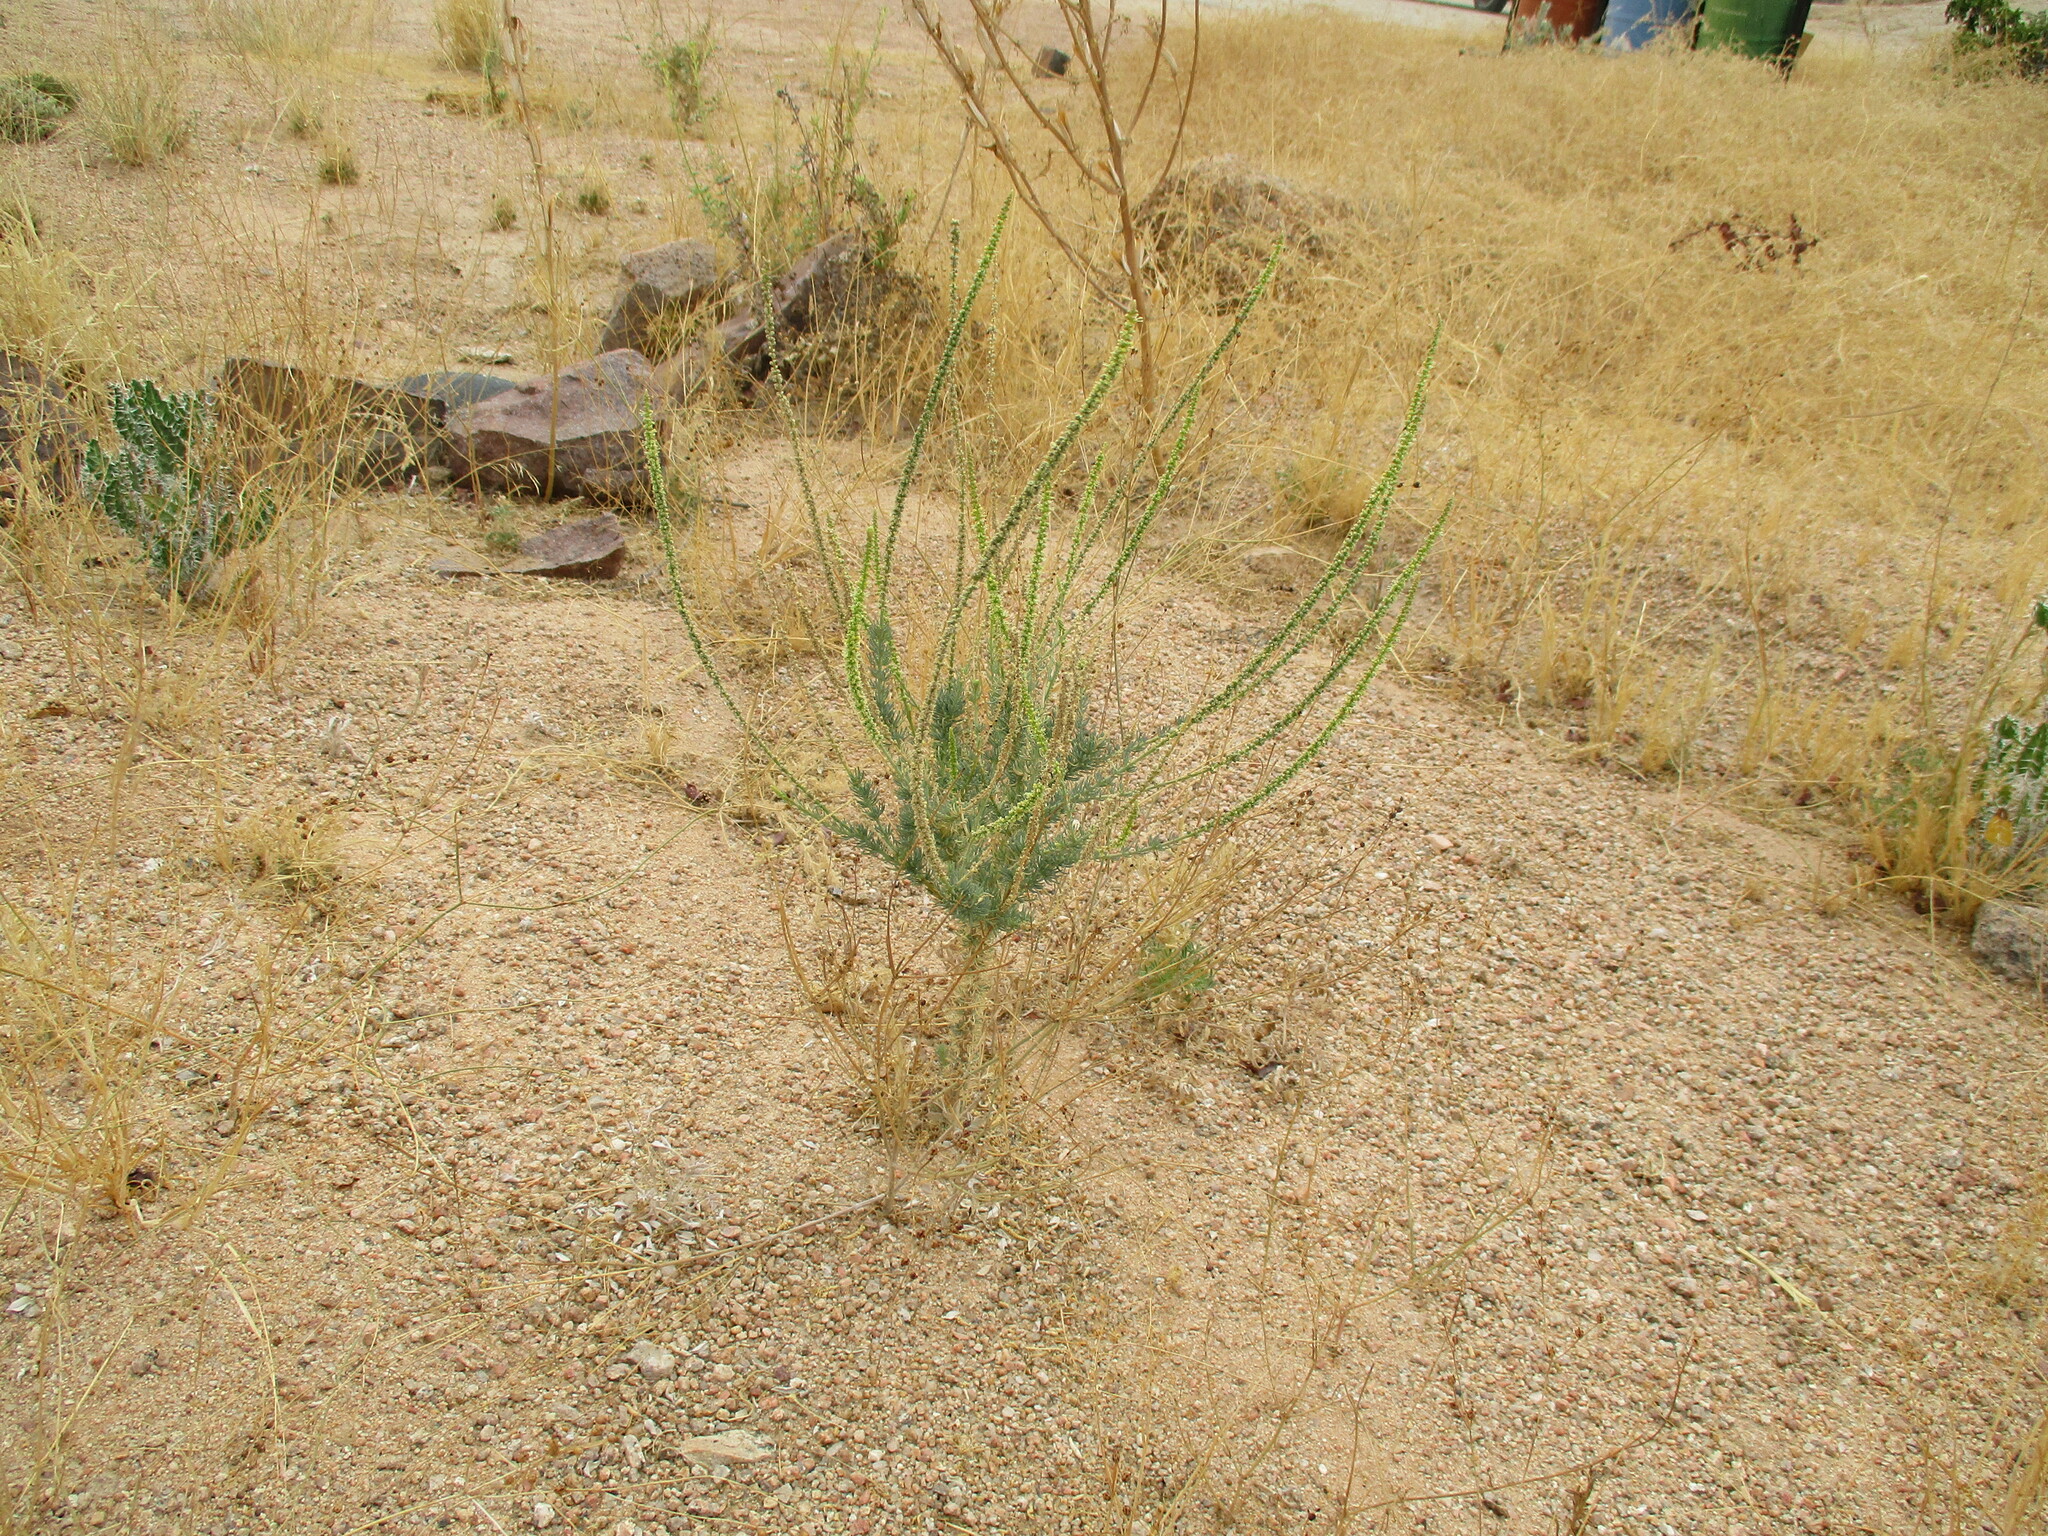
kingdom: Plantae
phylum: Tracheophyta
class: Magnoliopsida
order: Caryophyllales
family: Lophiocarpaceae
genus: Lophiocarpus
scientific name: Lophiocarpus polystachyus
